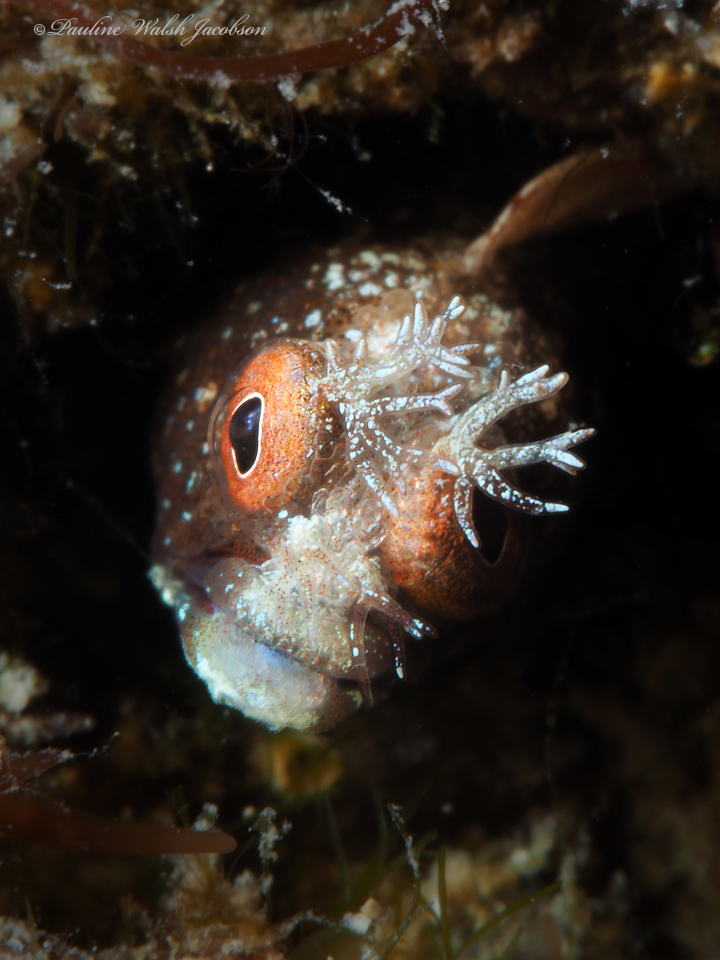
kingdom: Animalia
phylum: Chordata
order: Perciformes
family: Chaenopsidae
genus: Acanthemblemaria
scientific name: Acanthemblemaria aspera
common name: Roughhead blenny
